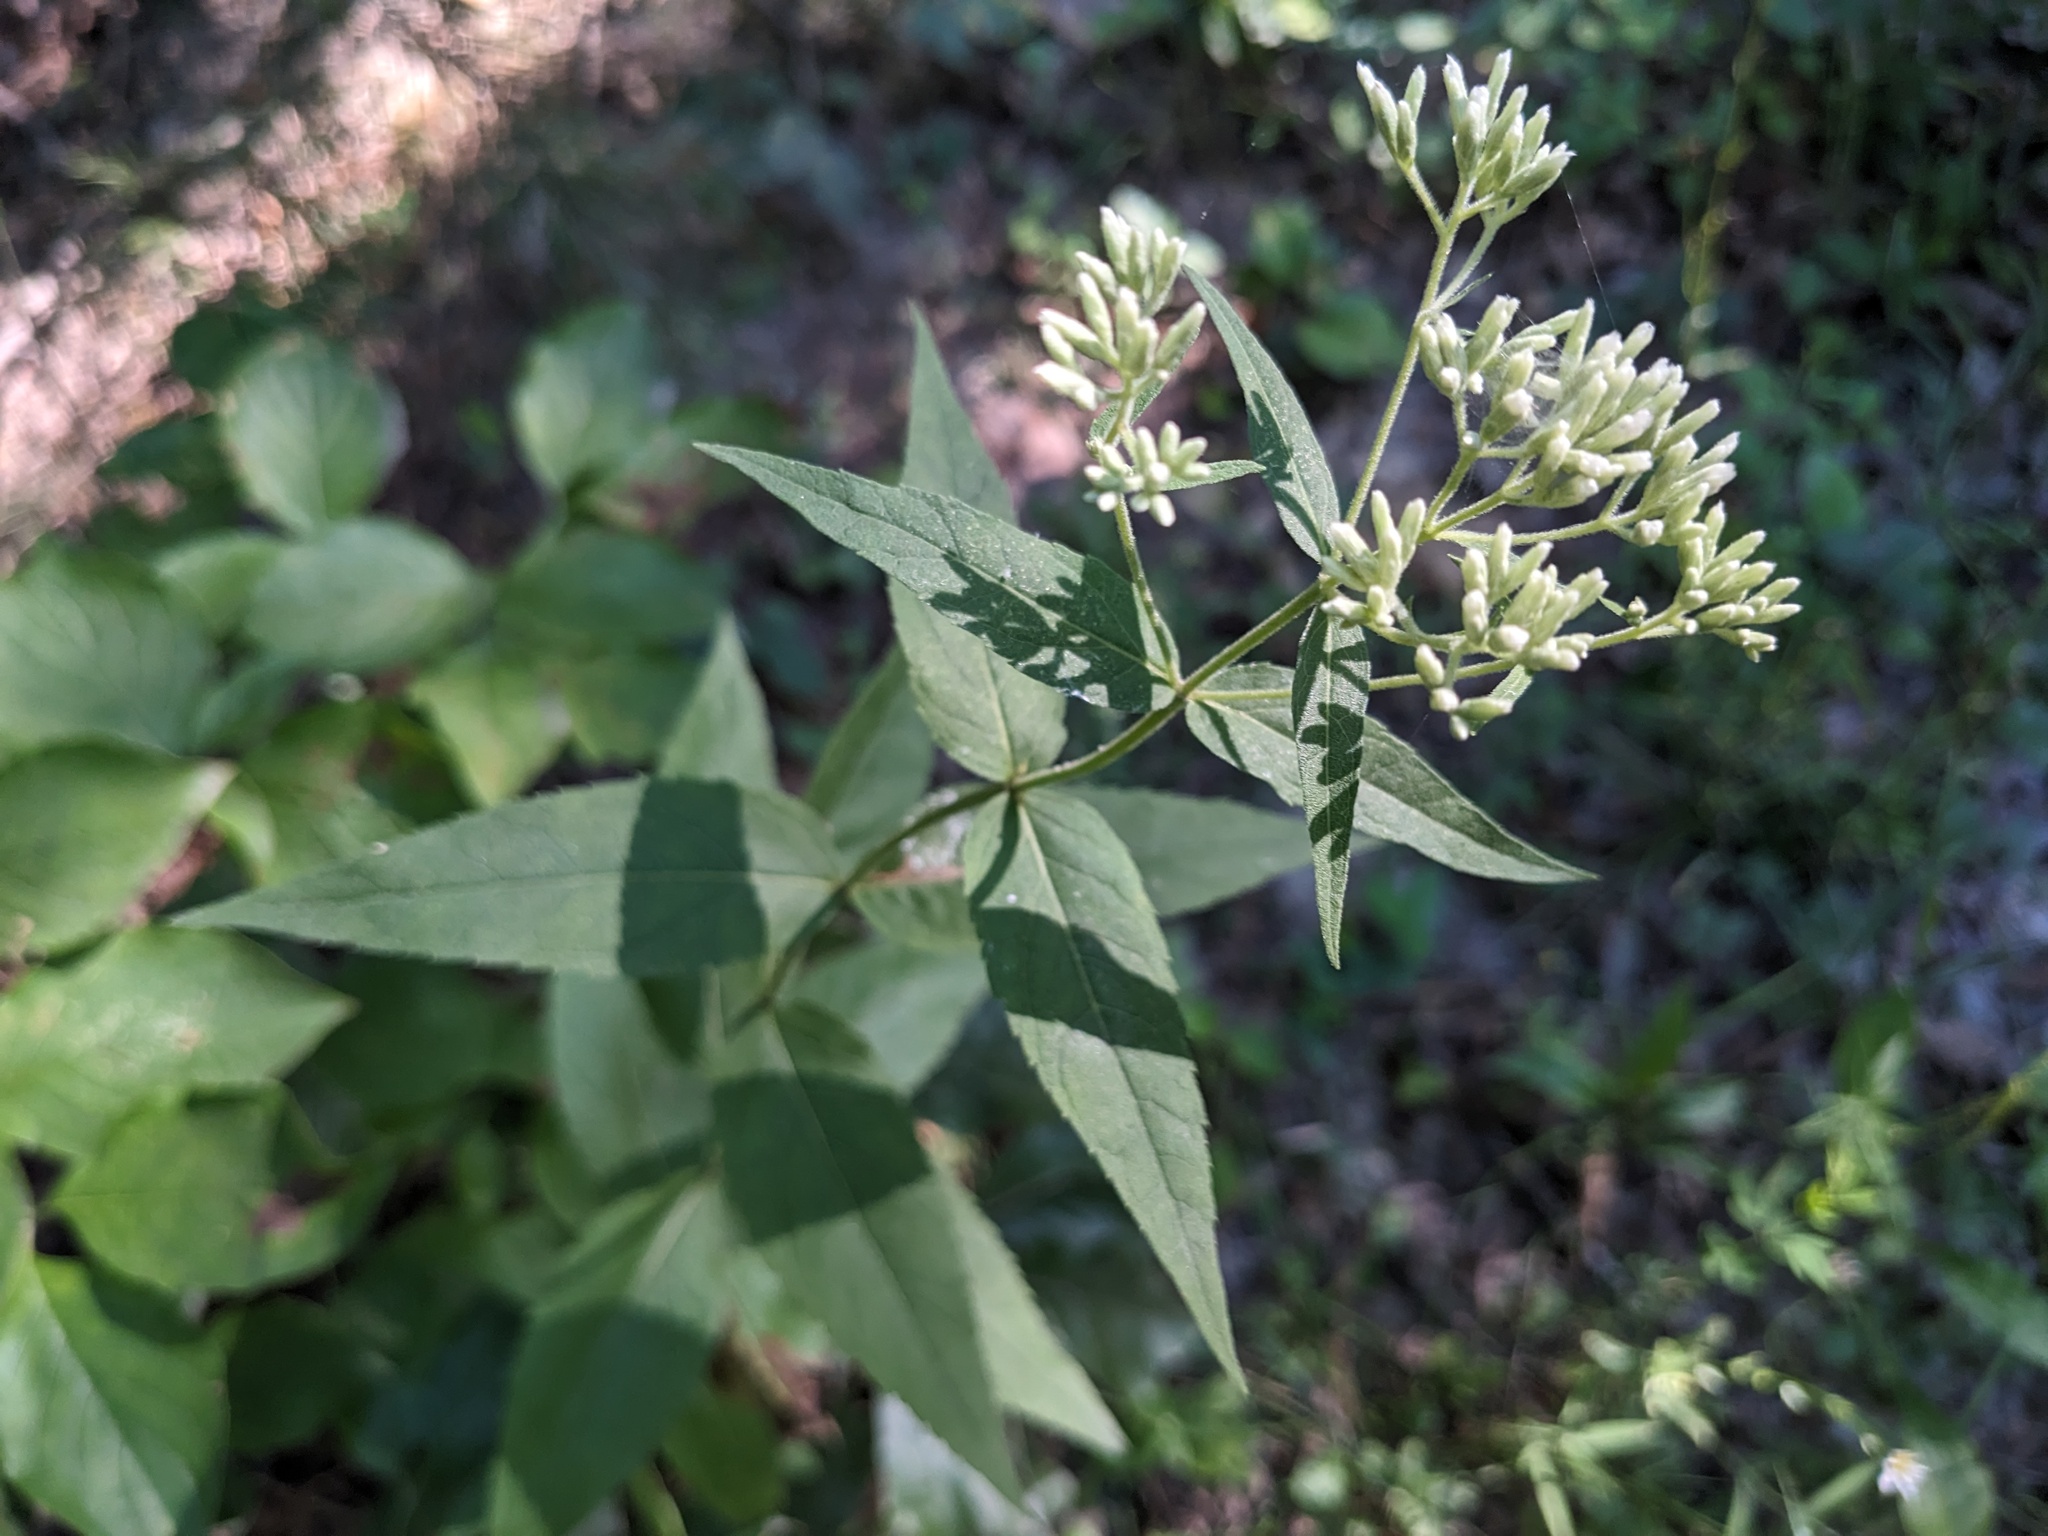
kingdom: Plantae
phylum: Tracheophyta
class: Magnoliopsida
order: Asterales
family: Asteraceae
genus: Eupatorium
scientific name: Eupatorium godfreyanum
